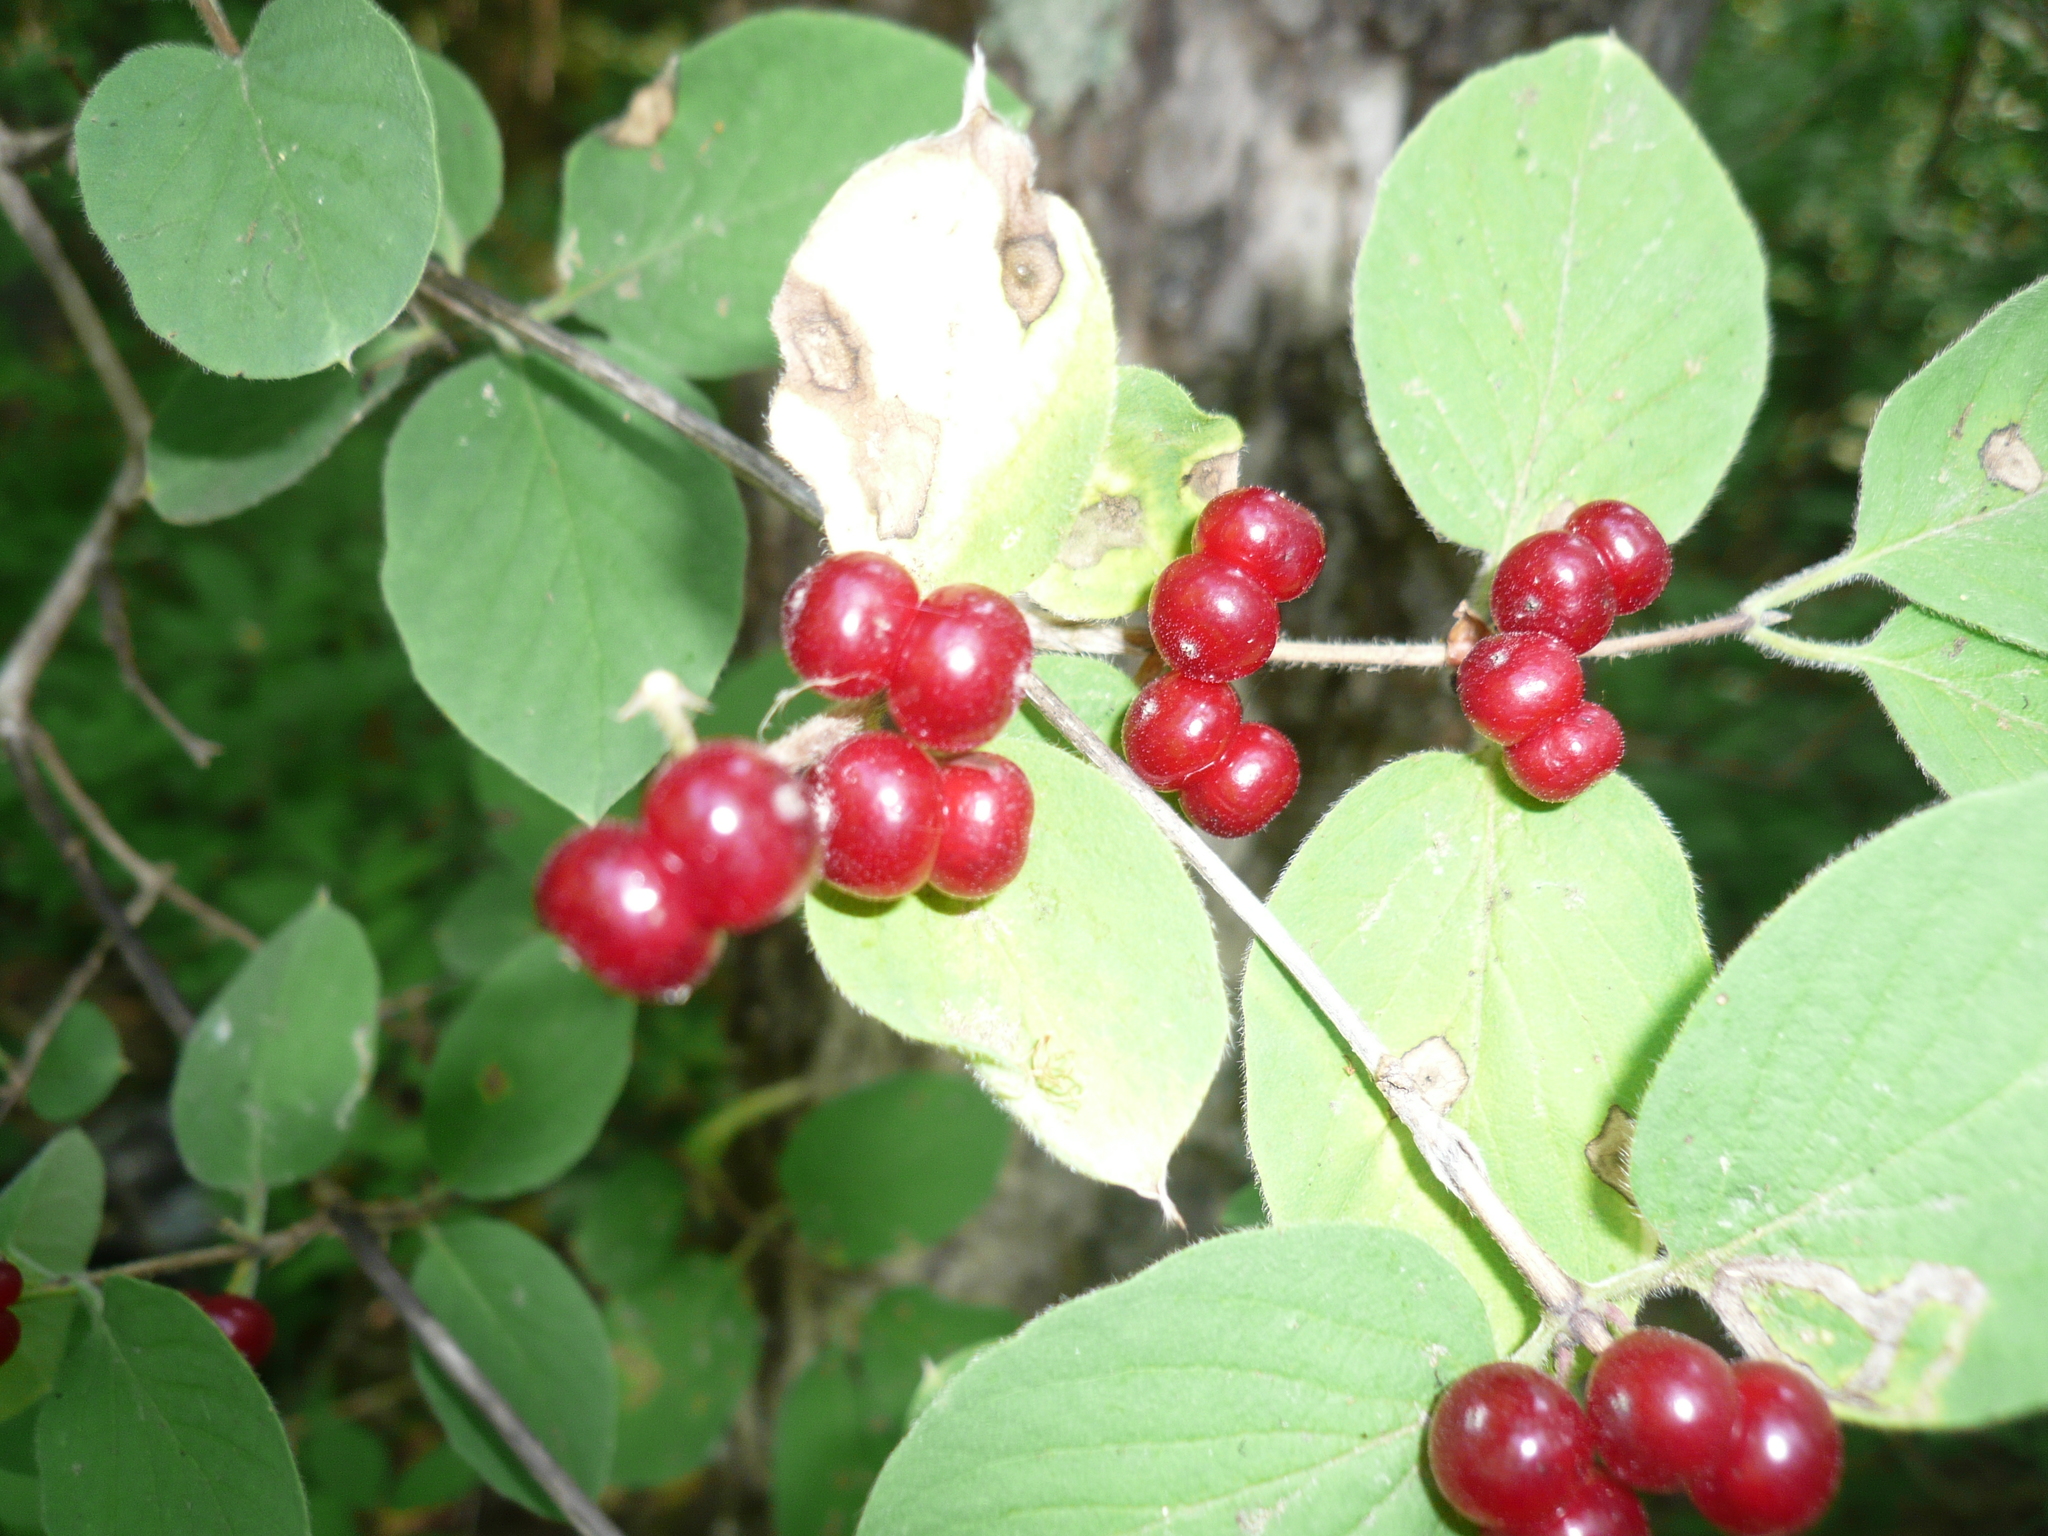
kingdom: Plantae
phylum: Tracheophyta
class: Magnoliopsida
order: Dipsacales
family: Caprifoliaceae
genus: Lonicera
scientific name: Lonicera xylosteum
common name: Fly honeysuckle
